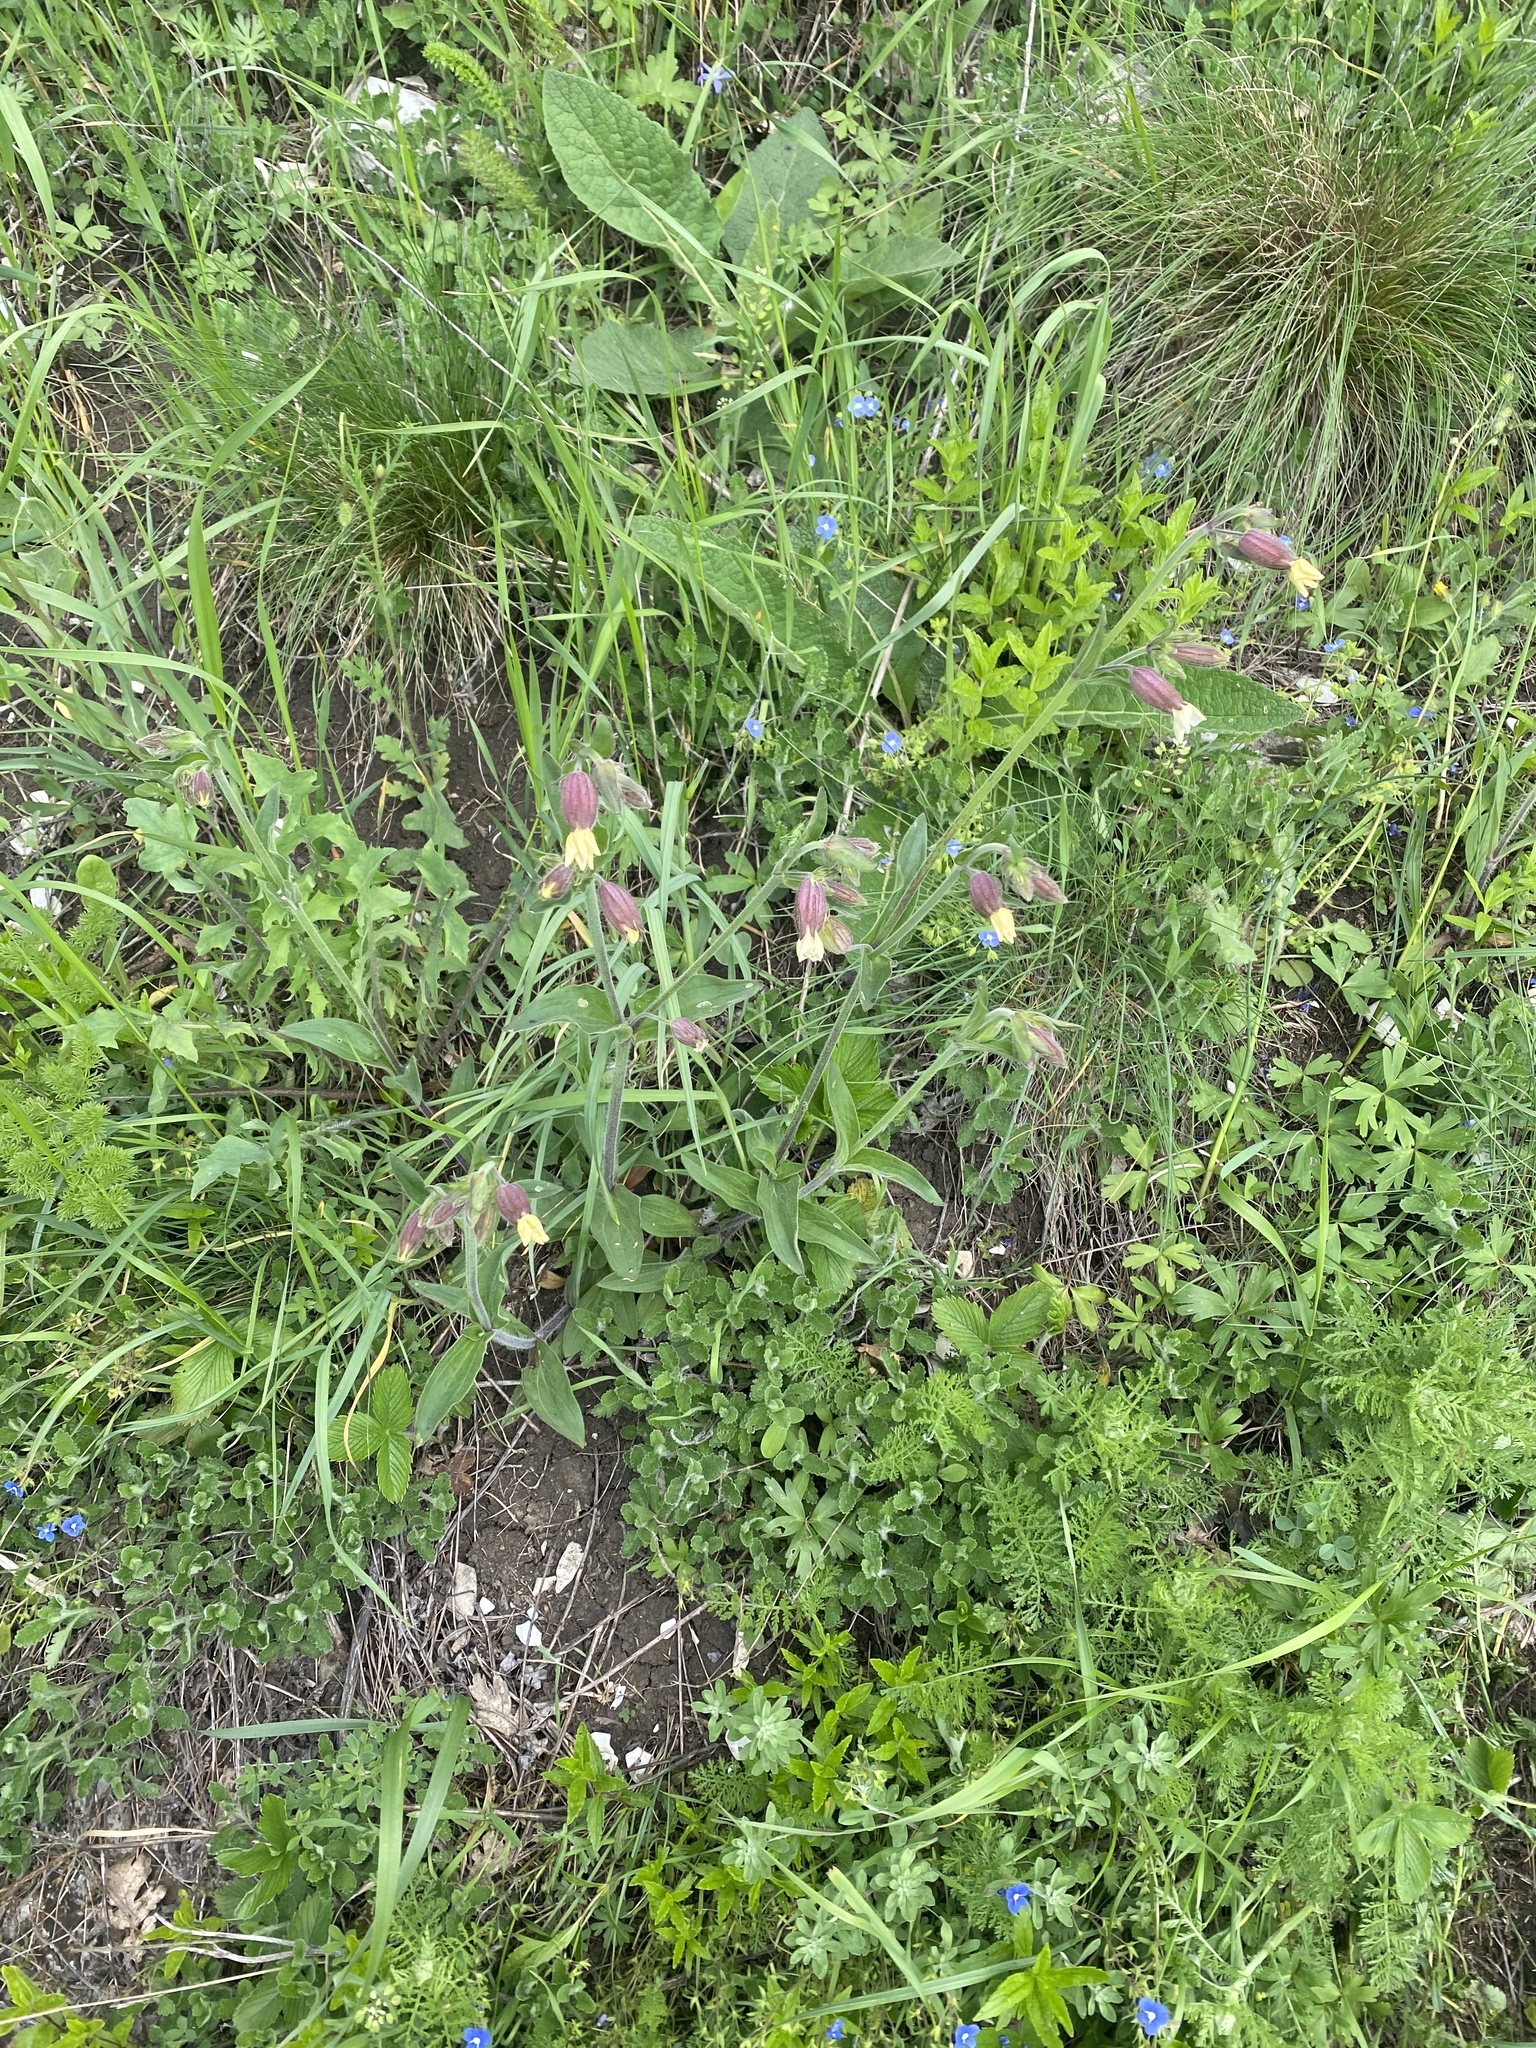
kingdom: Plantae
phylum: Tracheophyta
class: Magnoliopsida
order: Caryophyllales
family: Caryophyllaceae
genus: Silene
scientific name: Silene latifolia
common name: White campion
